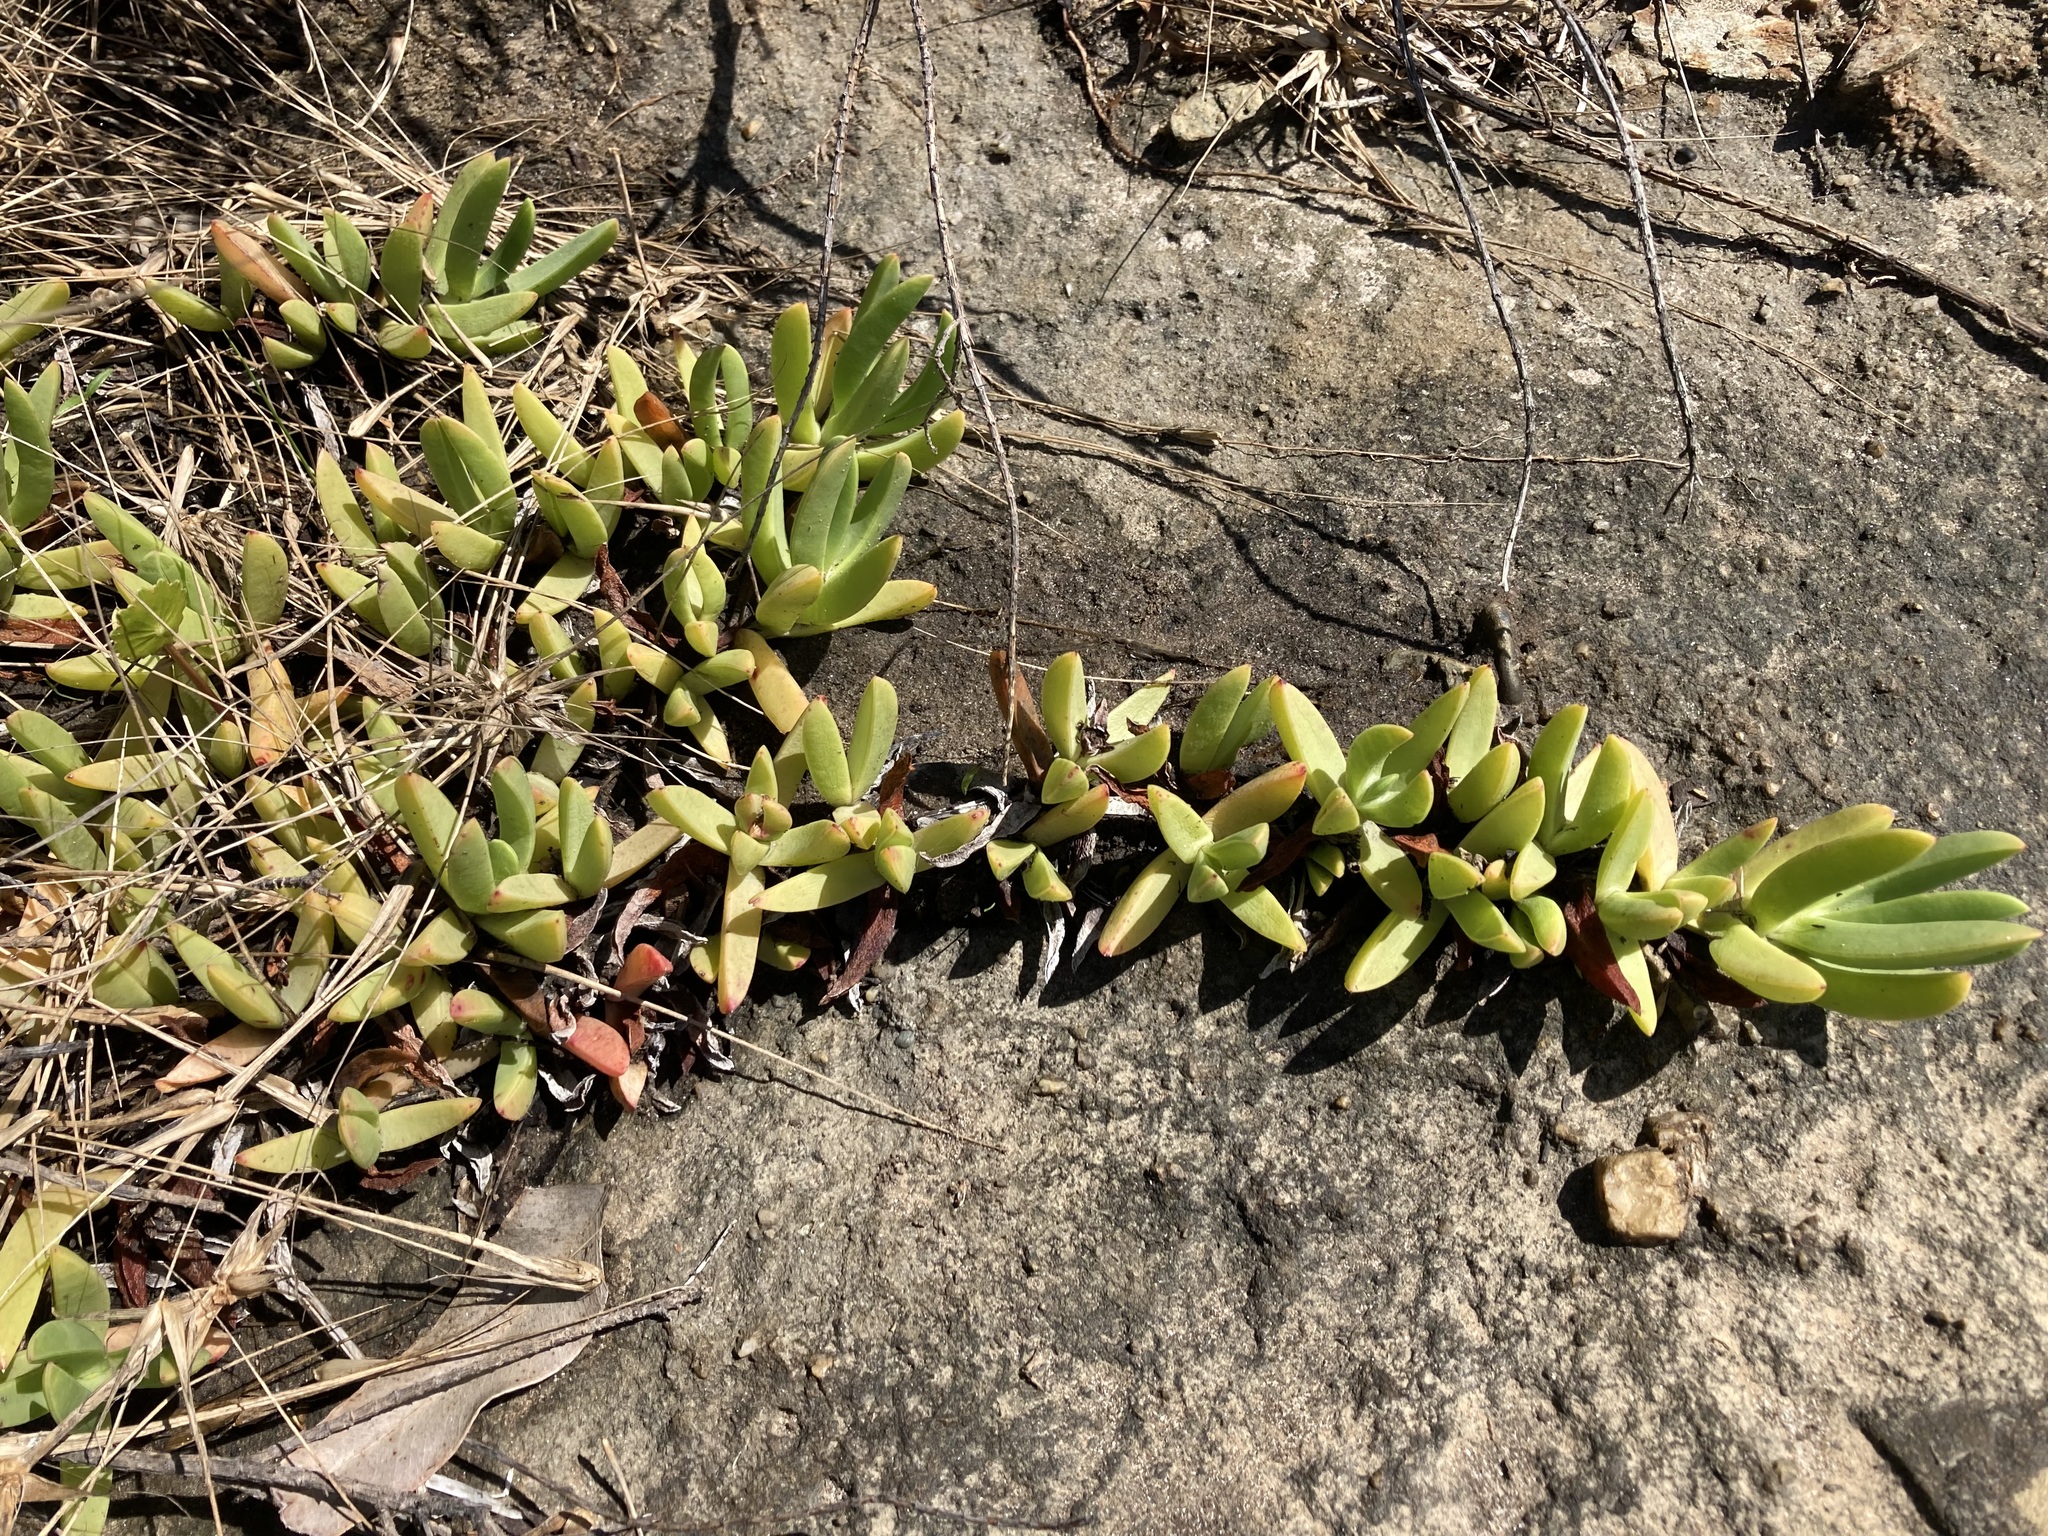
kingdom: Plantae
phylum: Tracheophyta
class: Magnoliopsida
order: Caryophyllales
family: Aizoaceae
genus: Carpobrotus
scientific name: Carpobrotus glaucescens
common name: Angular sea-fig
